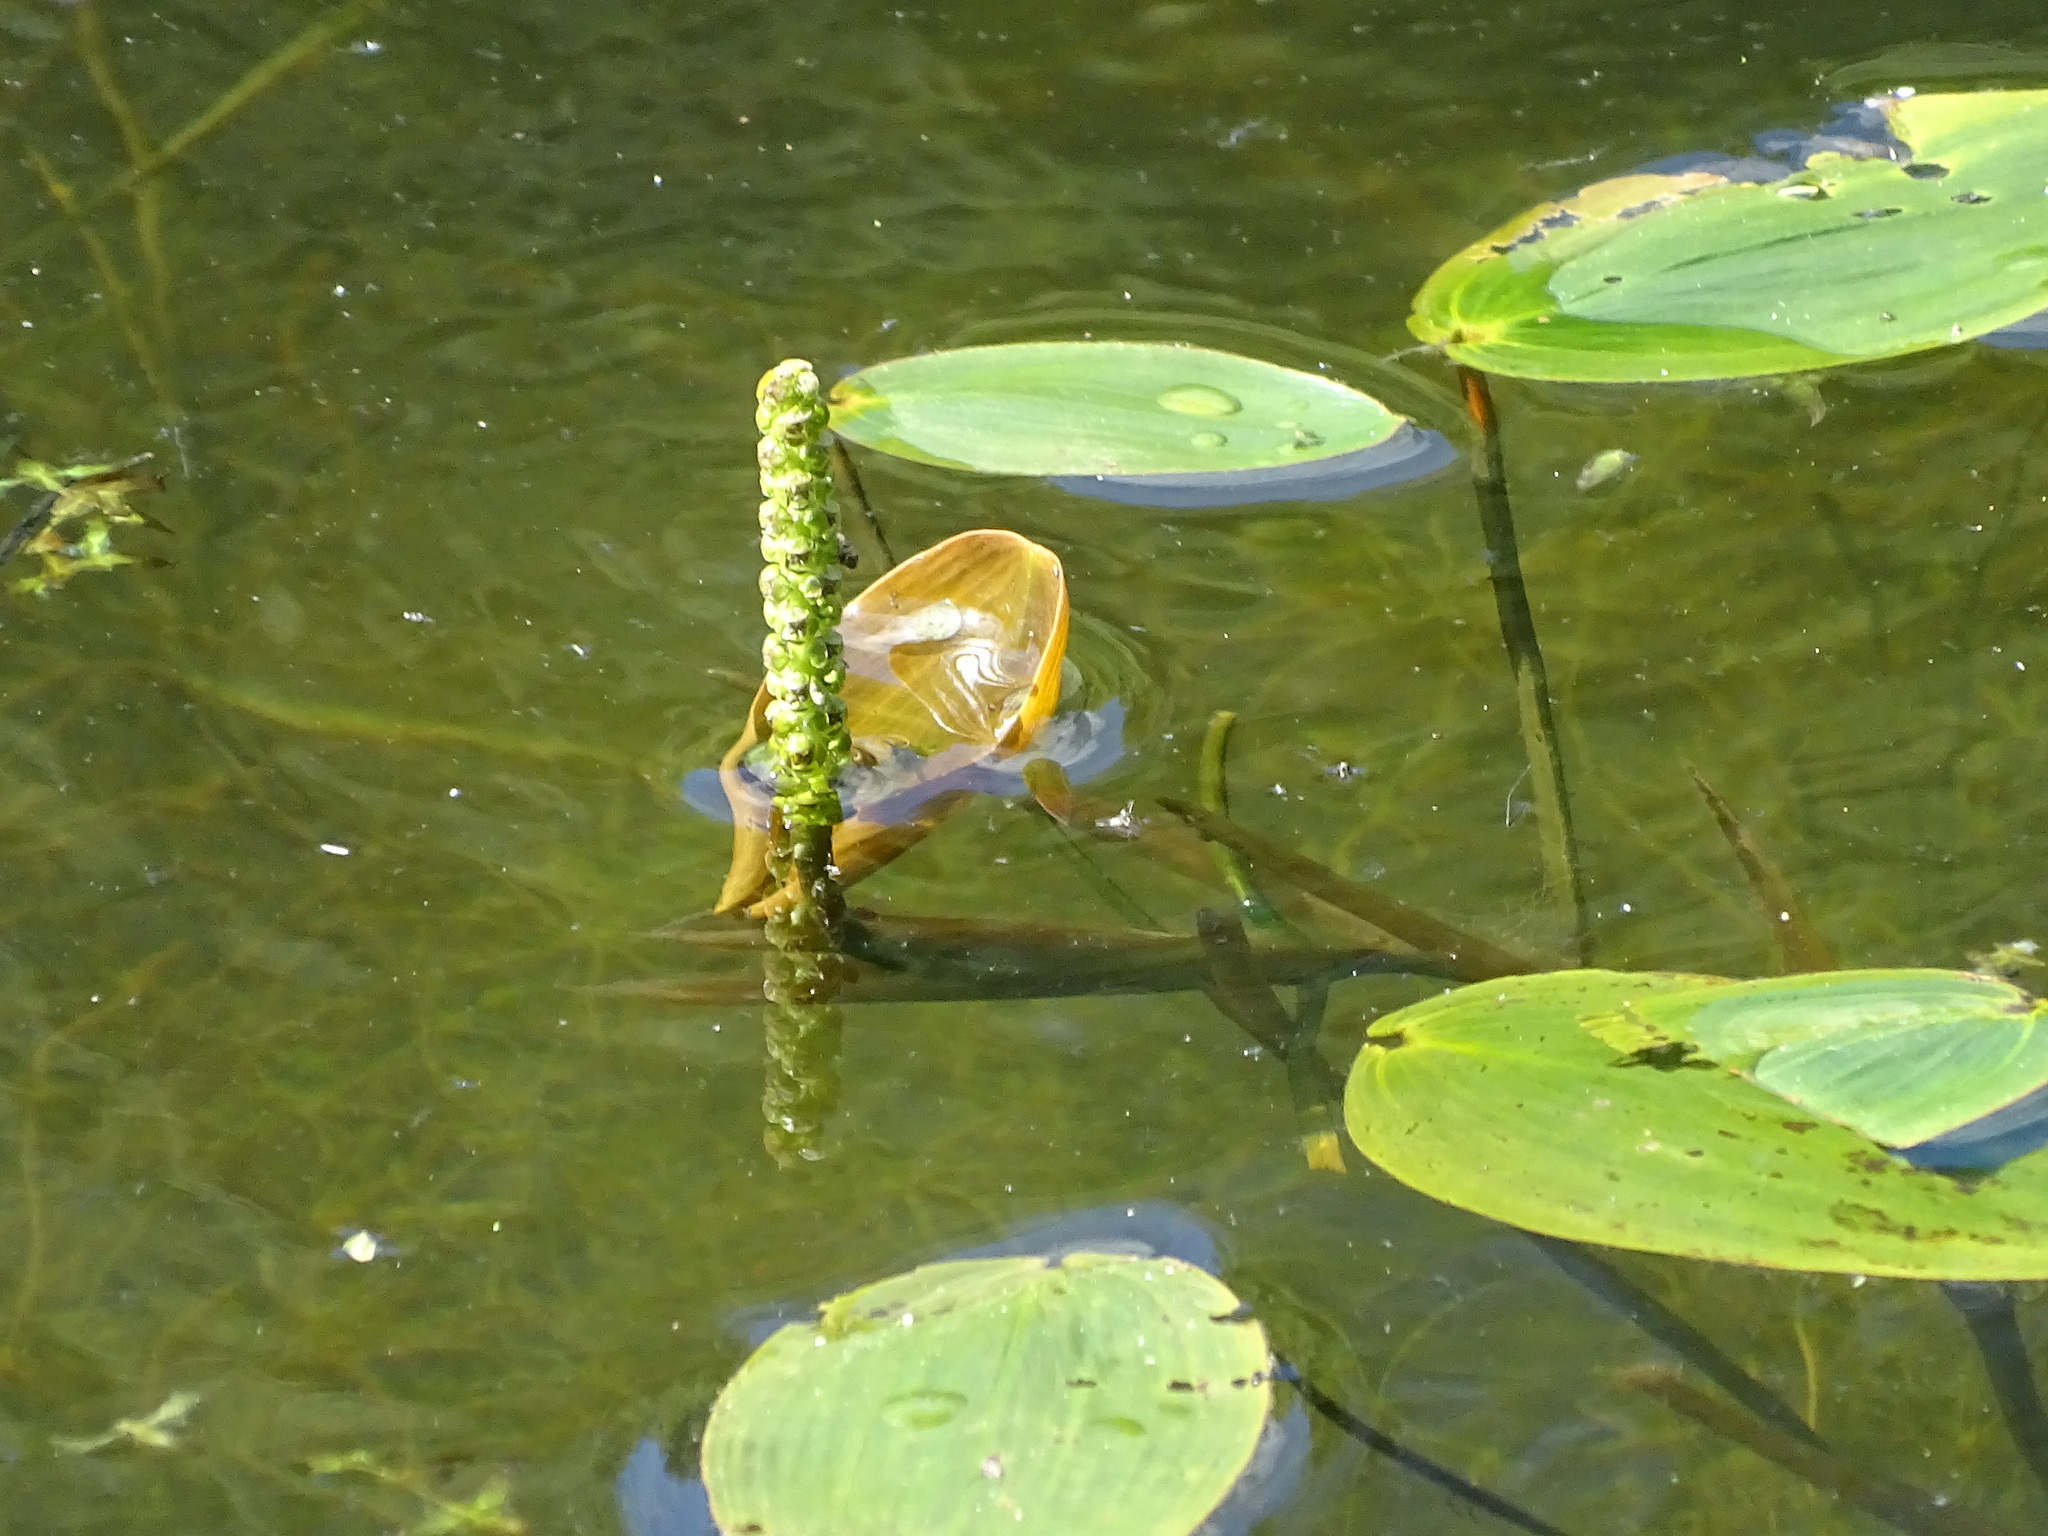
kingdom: Plantae
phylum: Tracheophyta
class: Liliopsida
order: Alismatales
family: Potamogetonaceae
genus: Potamogeton
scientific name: Potamogeton natans
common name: Broad-leaved pondweed
